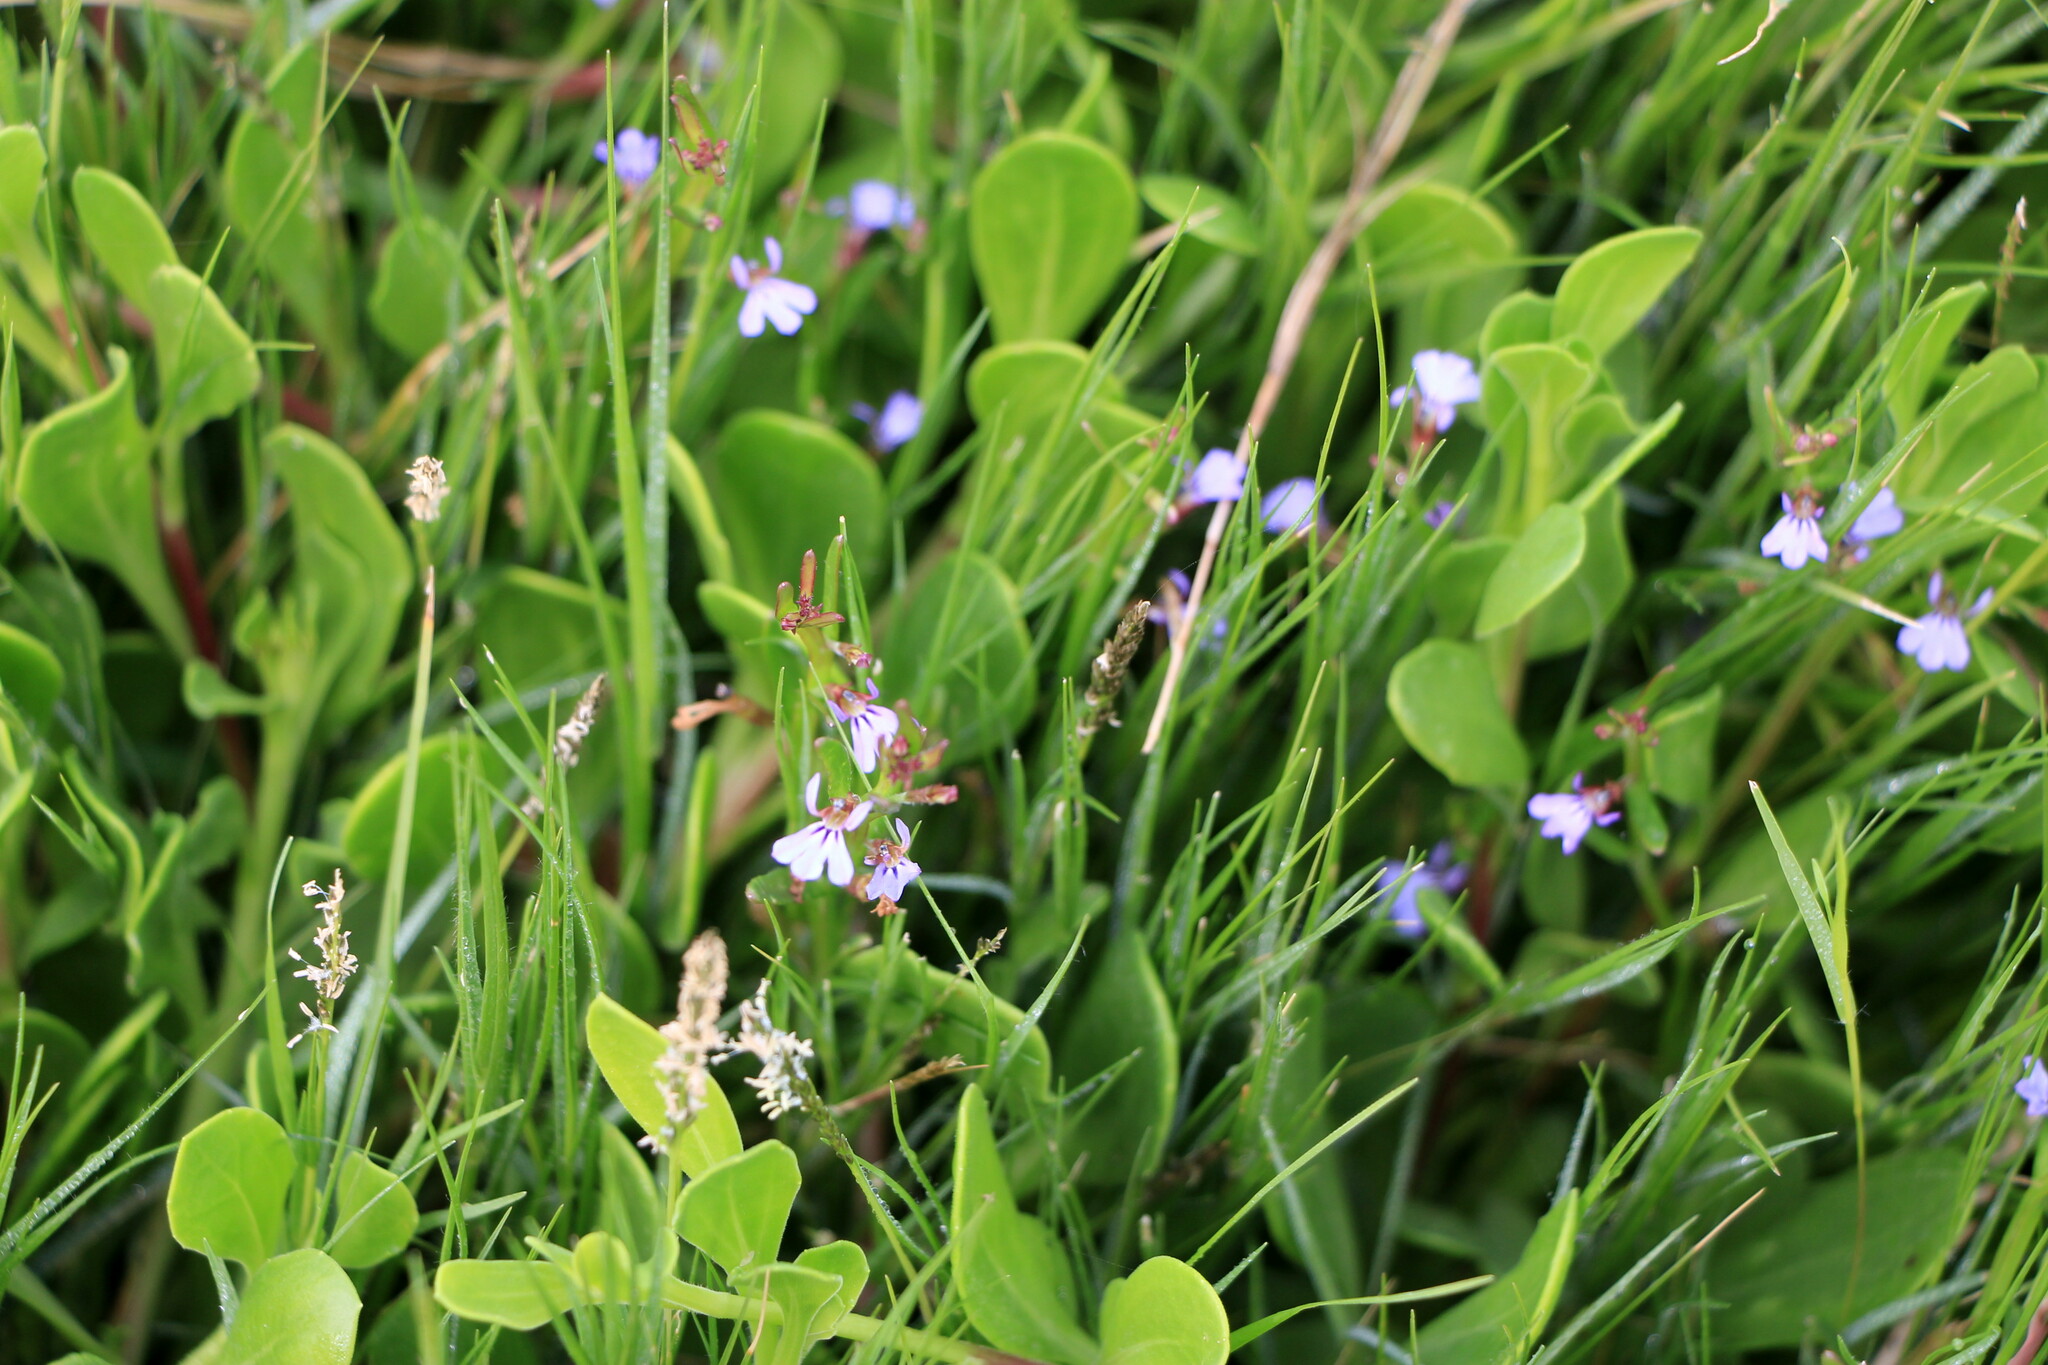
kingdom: Plantae
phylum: Tracheophyta
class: Magnoliopsida
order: Asterales
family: Campanulaceae
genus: Lobelia
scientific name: Lobelia anceps
